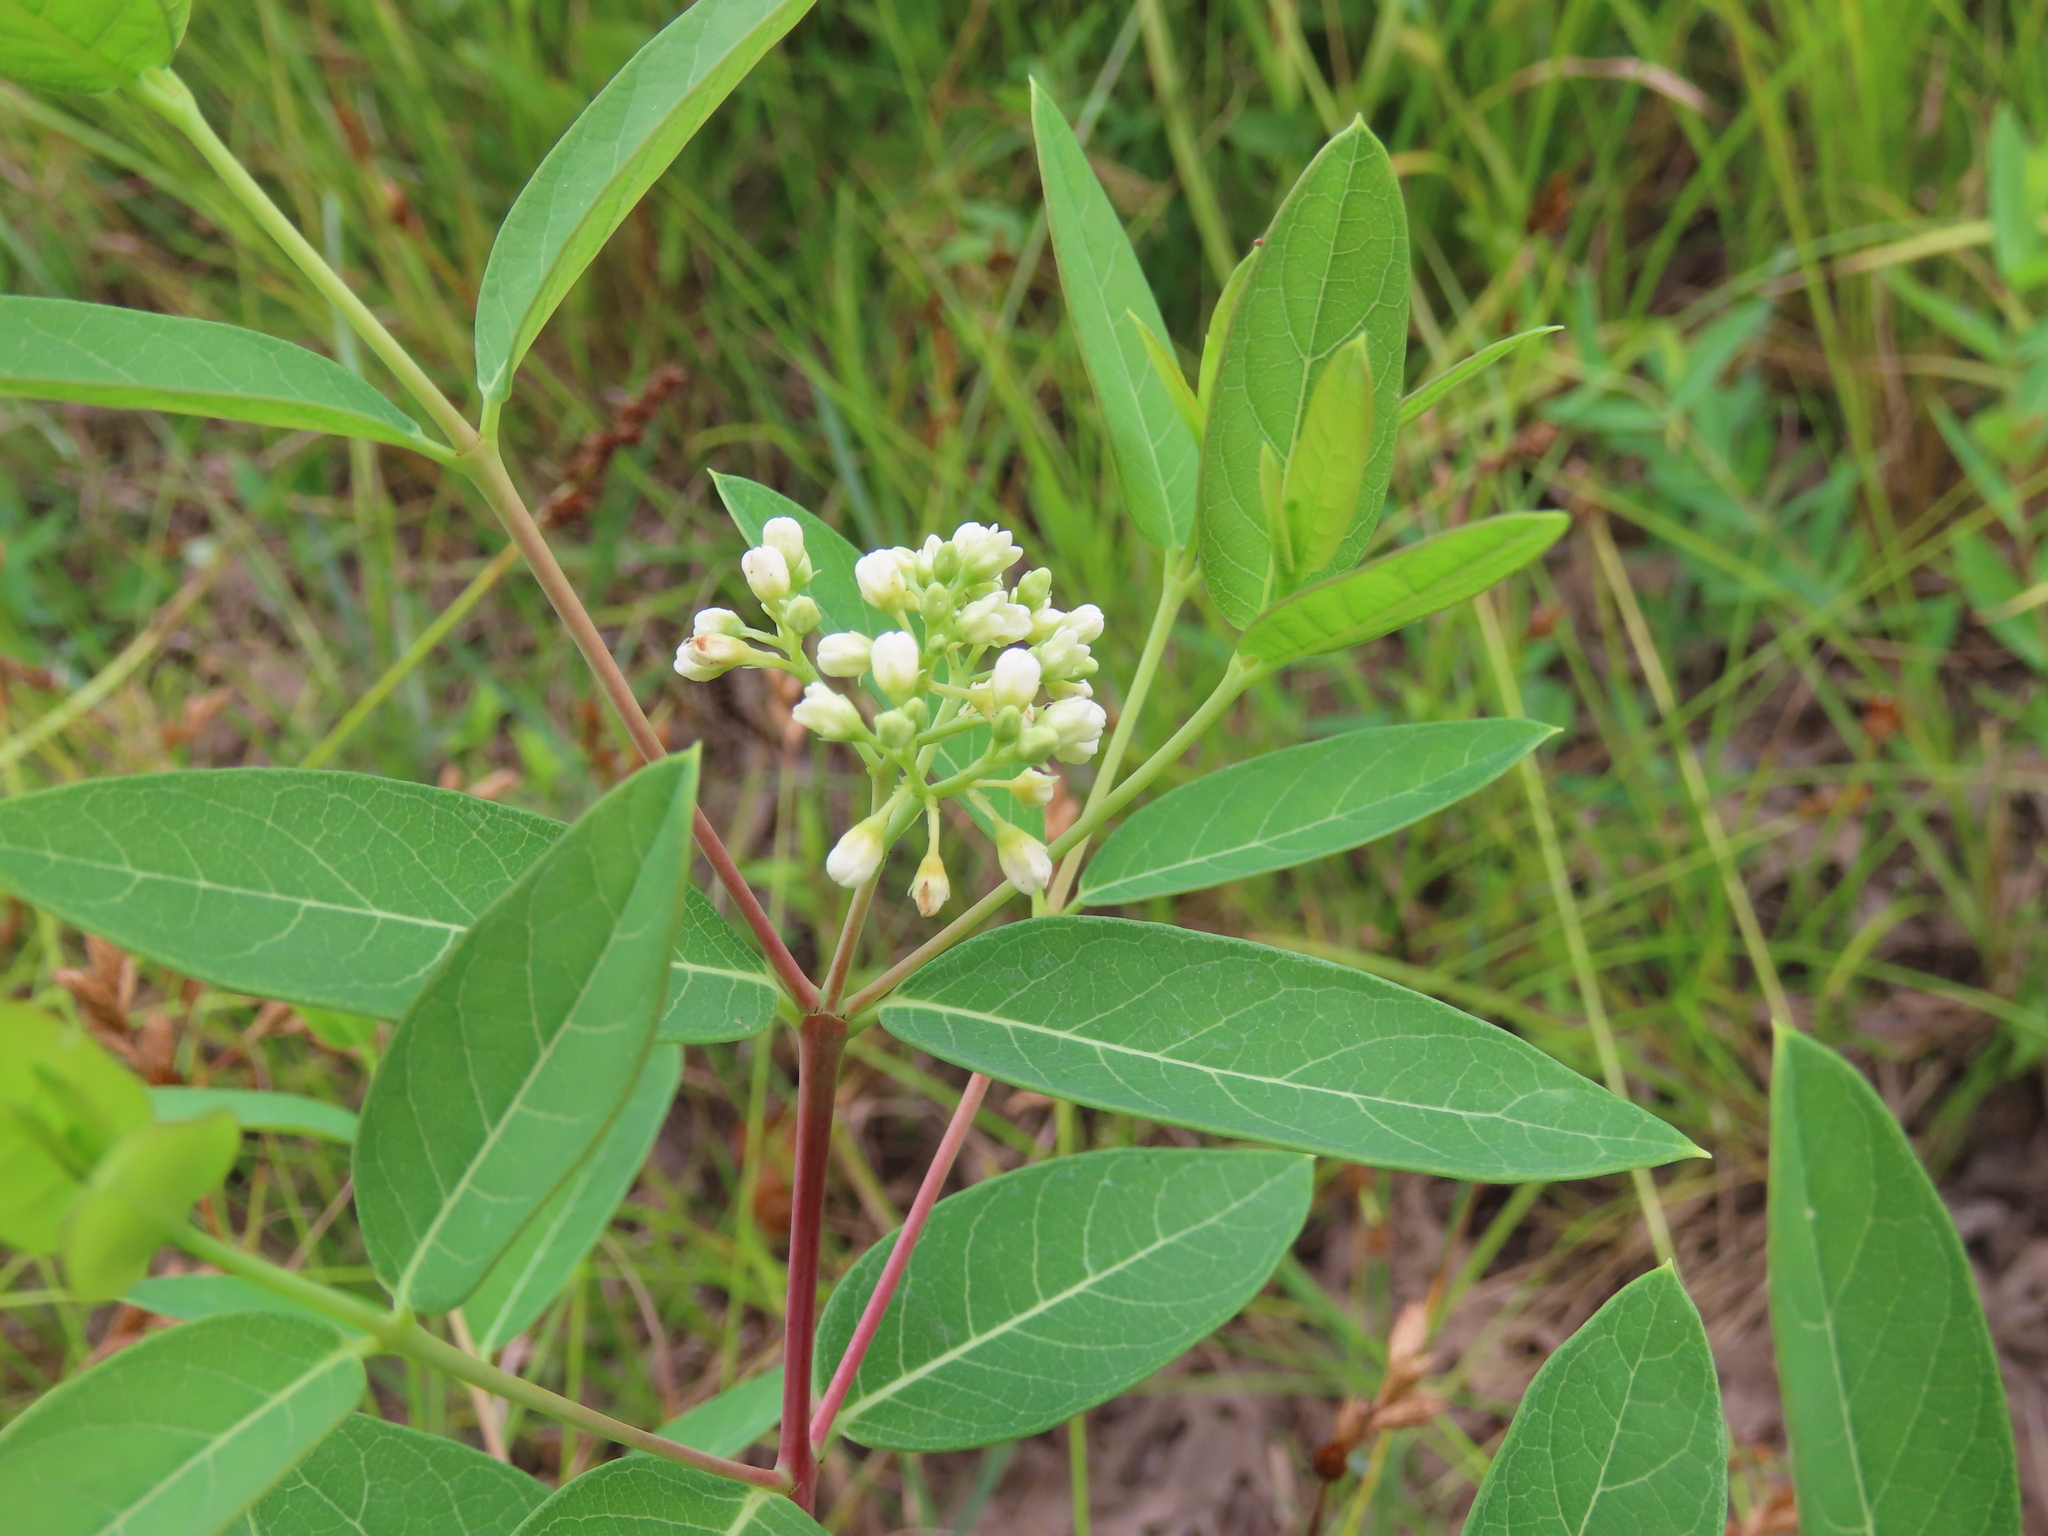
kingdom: Plantae
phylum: Tracheophyta
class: Magnoliopsida
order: Gentianales
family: Apocynaceae
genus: Apocynum
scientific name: Apocynum cannabinum
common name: Hemp dogbane
